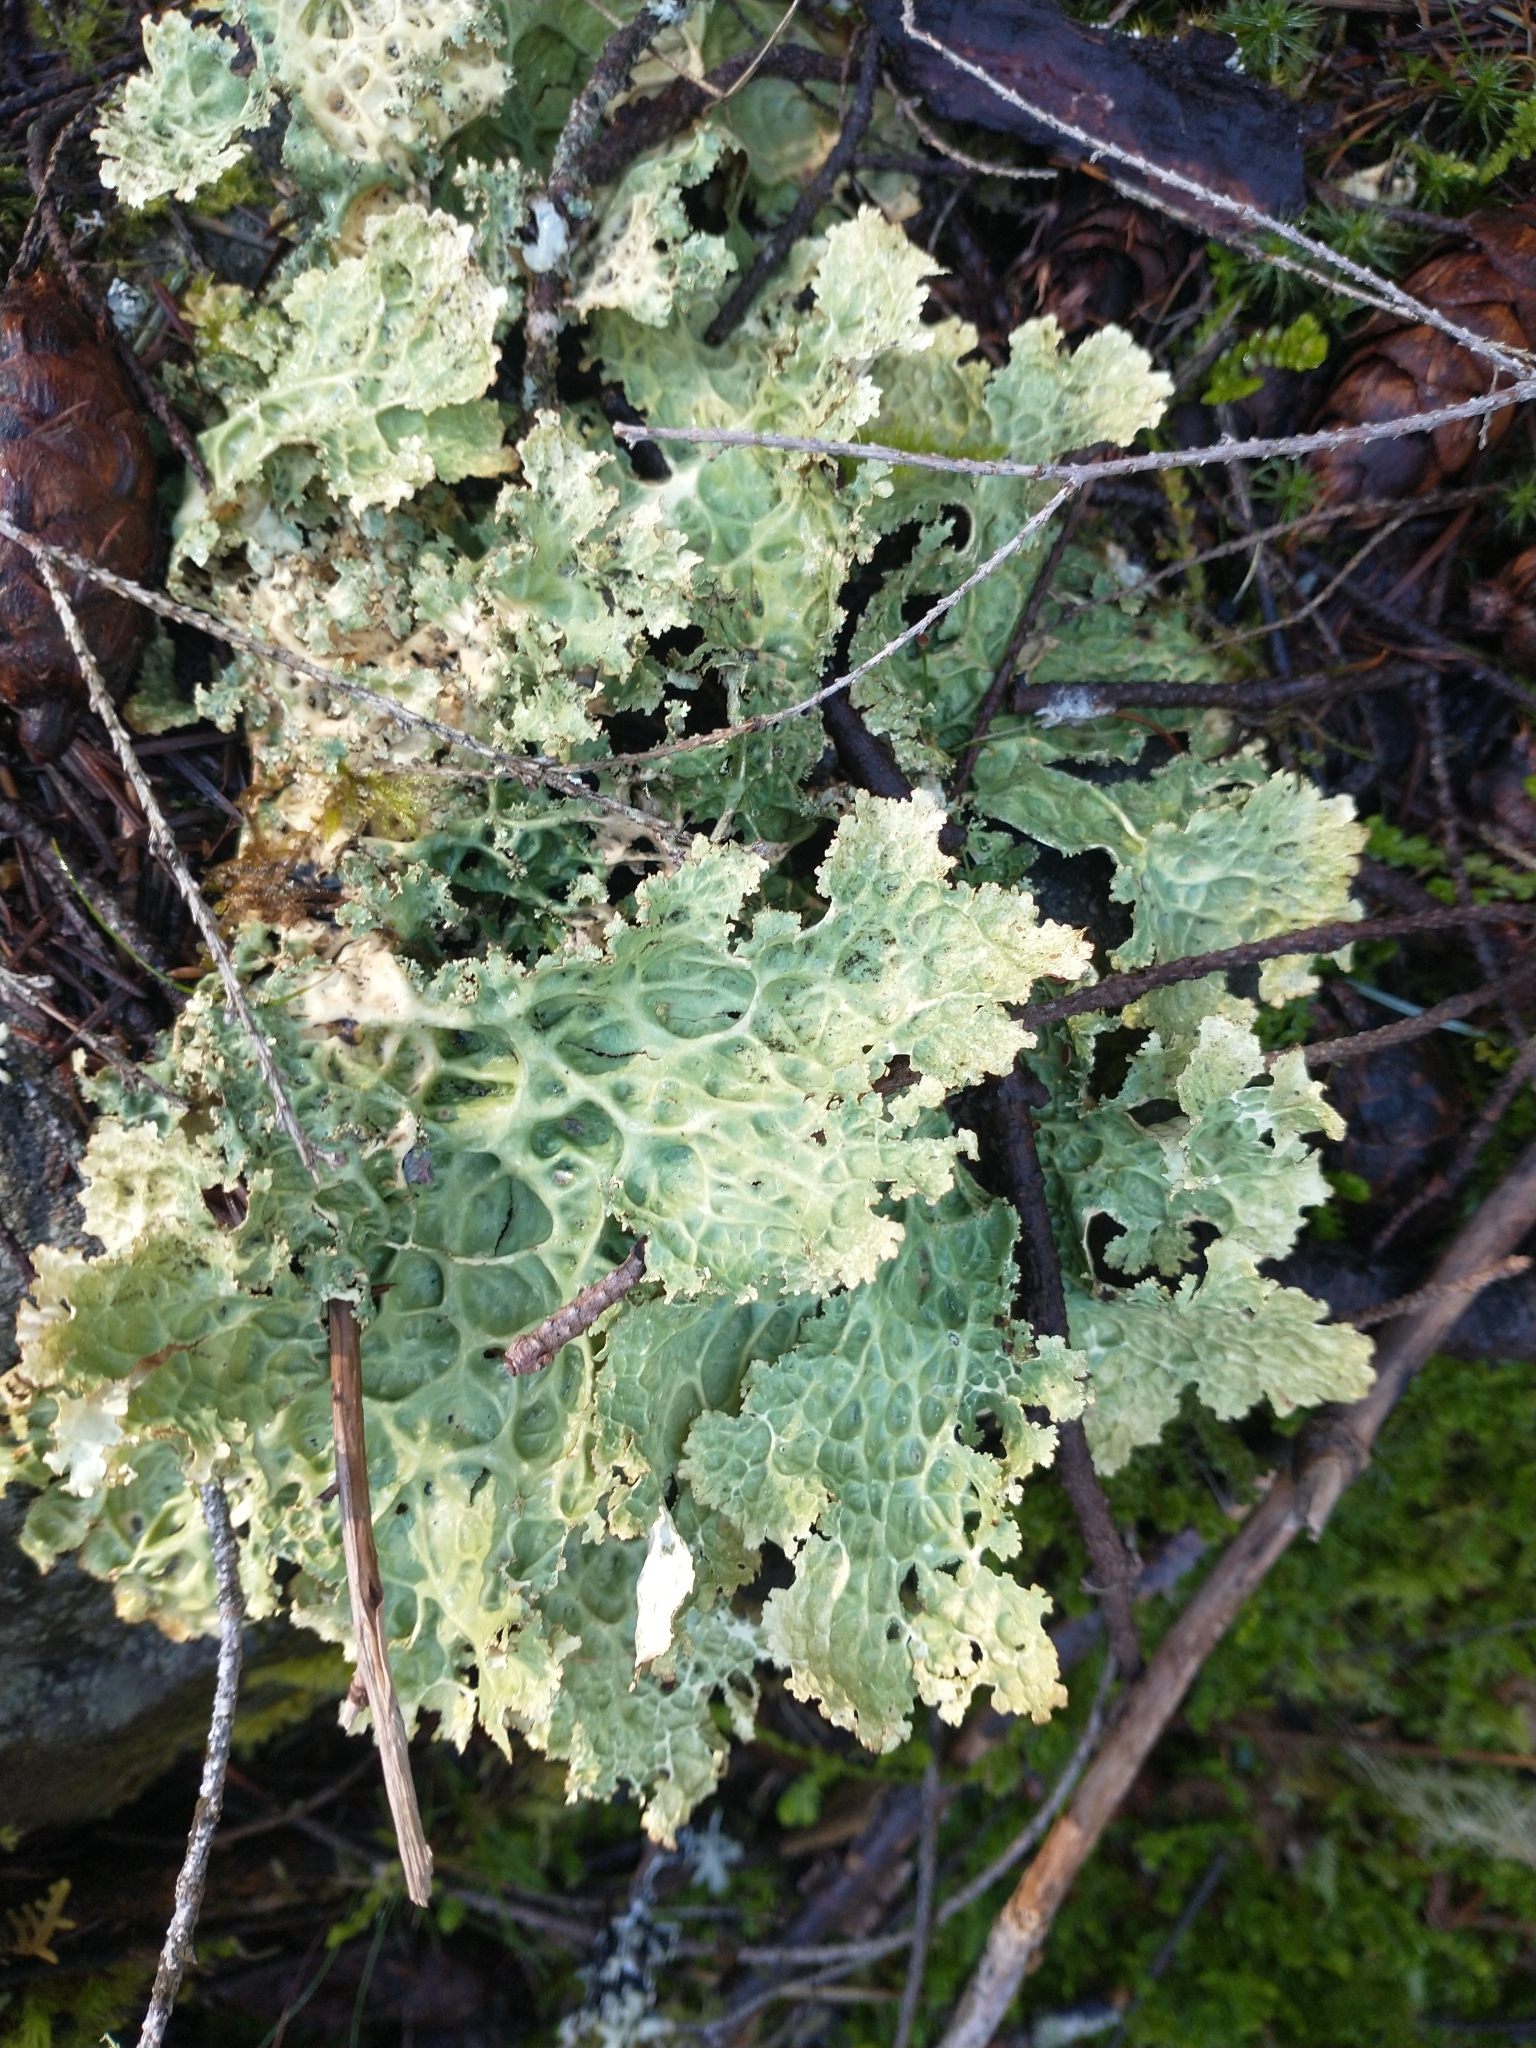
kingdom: Fungi
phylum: Ascomycota
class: Lecanoromycetes
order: Peltigerales
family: Lobariaceae
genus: Lobaria
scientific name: Lobaria oregana
